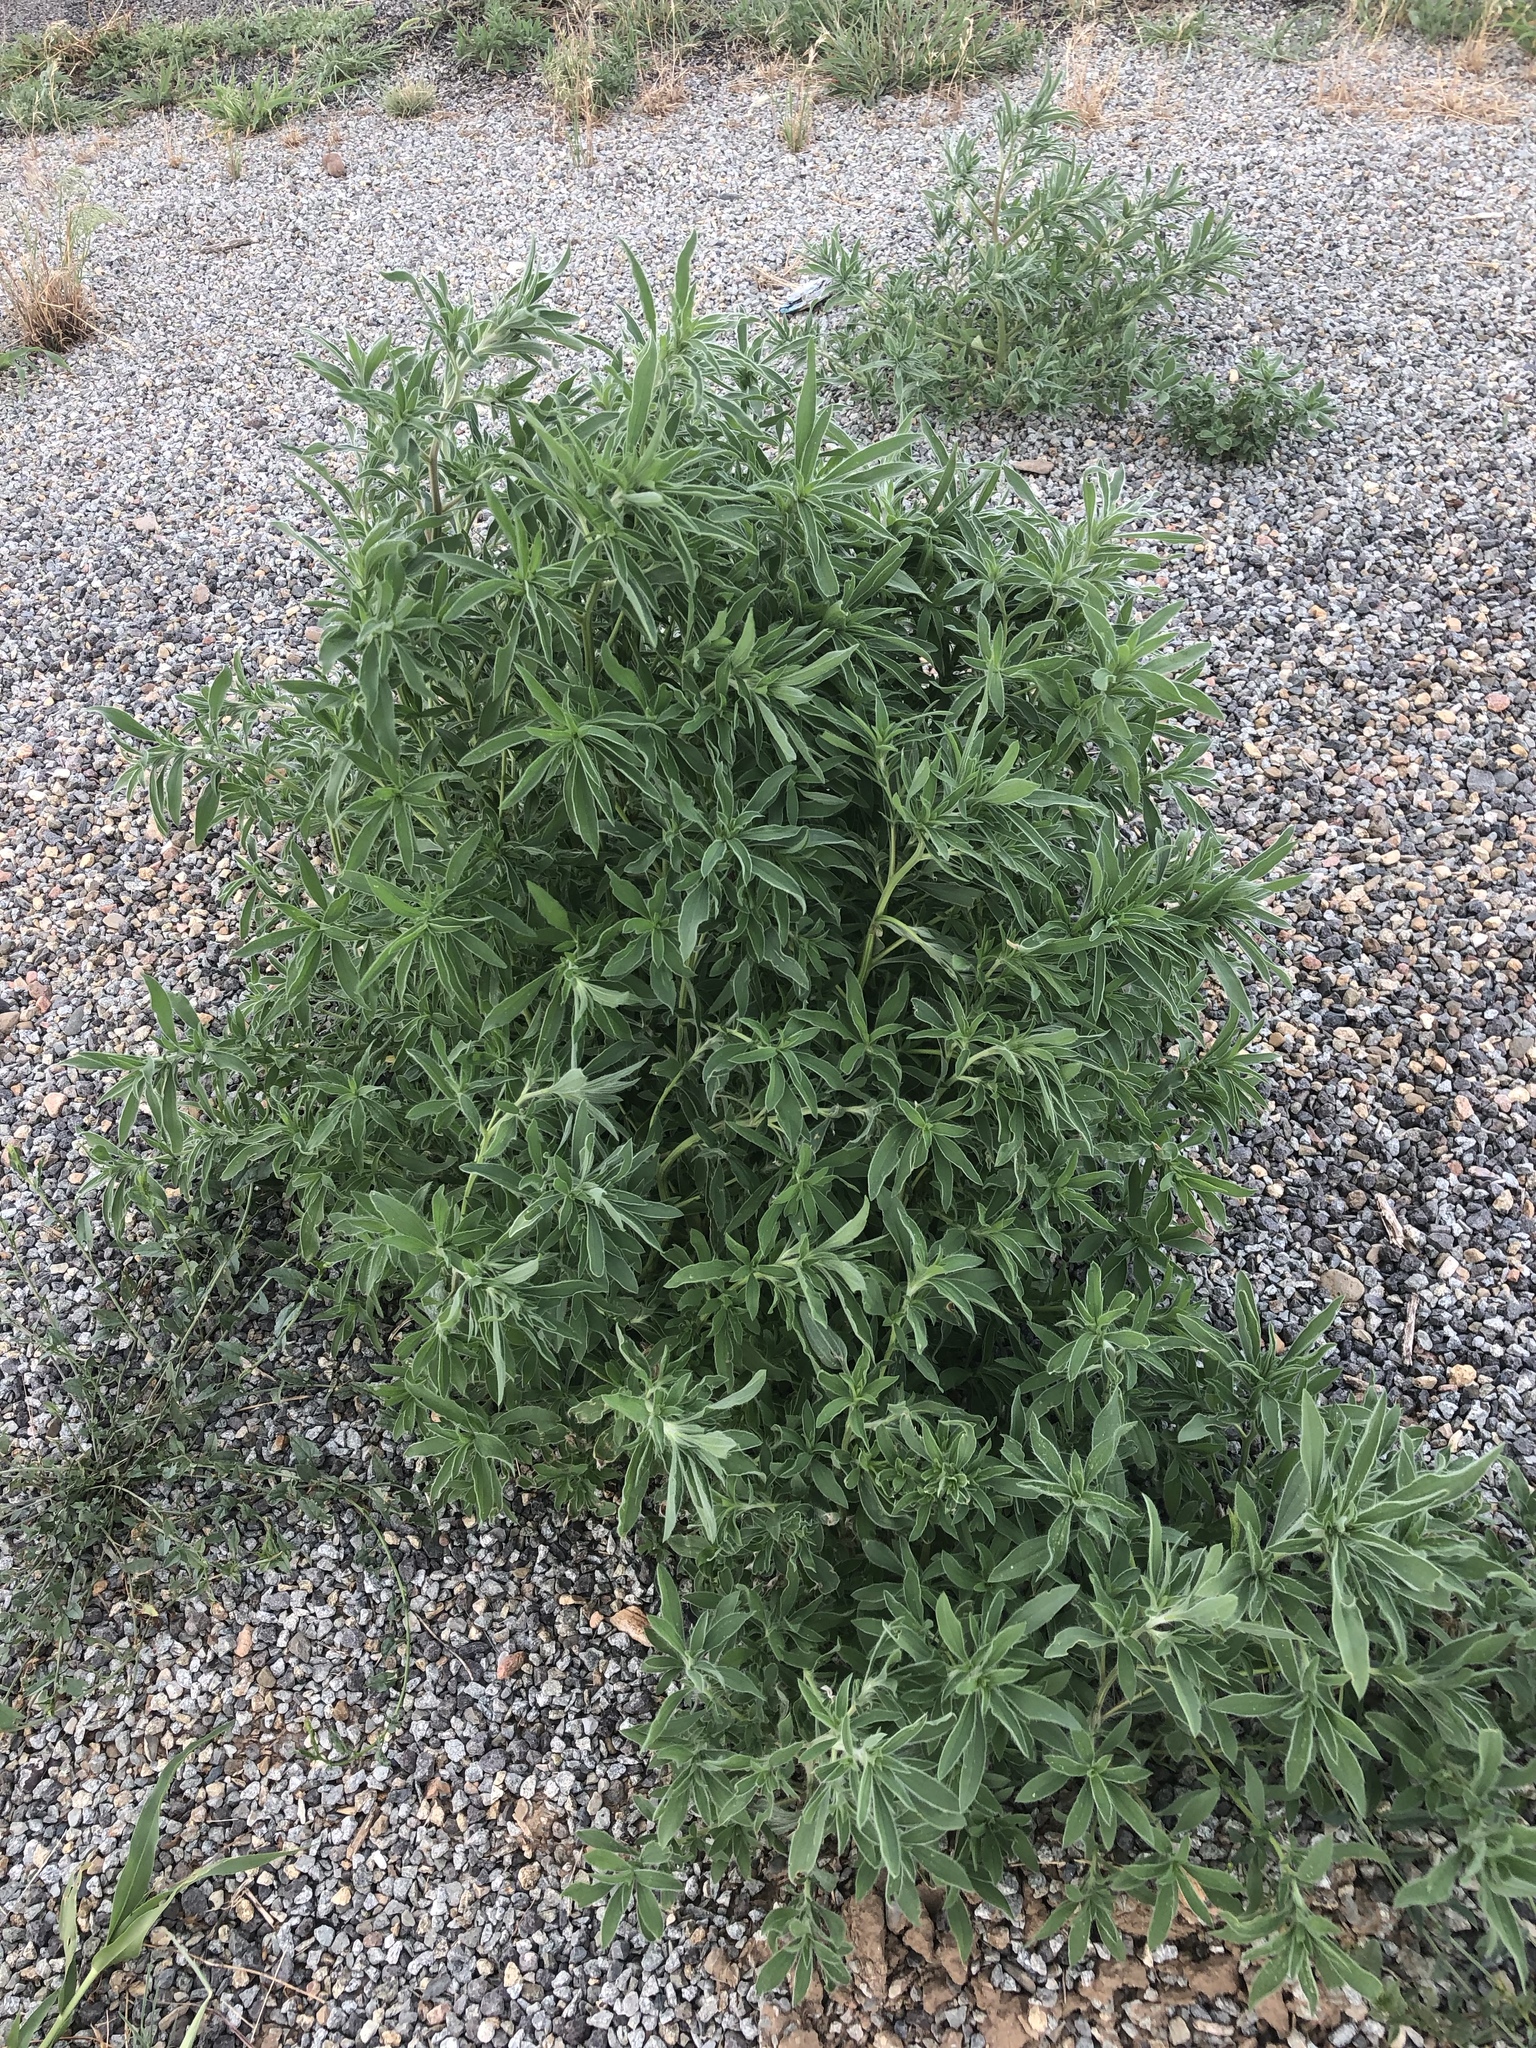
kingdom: Plantae
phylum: Tracheophyta
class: Magnoliopsida
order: Caryophyllales
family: Amaranthaceae
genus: Bassia
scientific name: Bassia scoparia
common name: Belvedere
